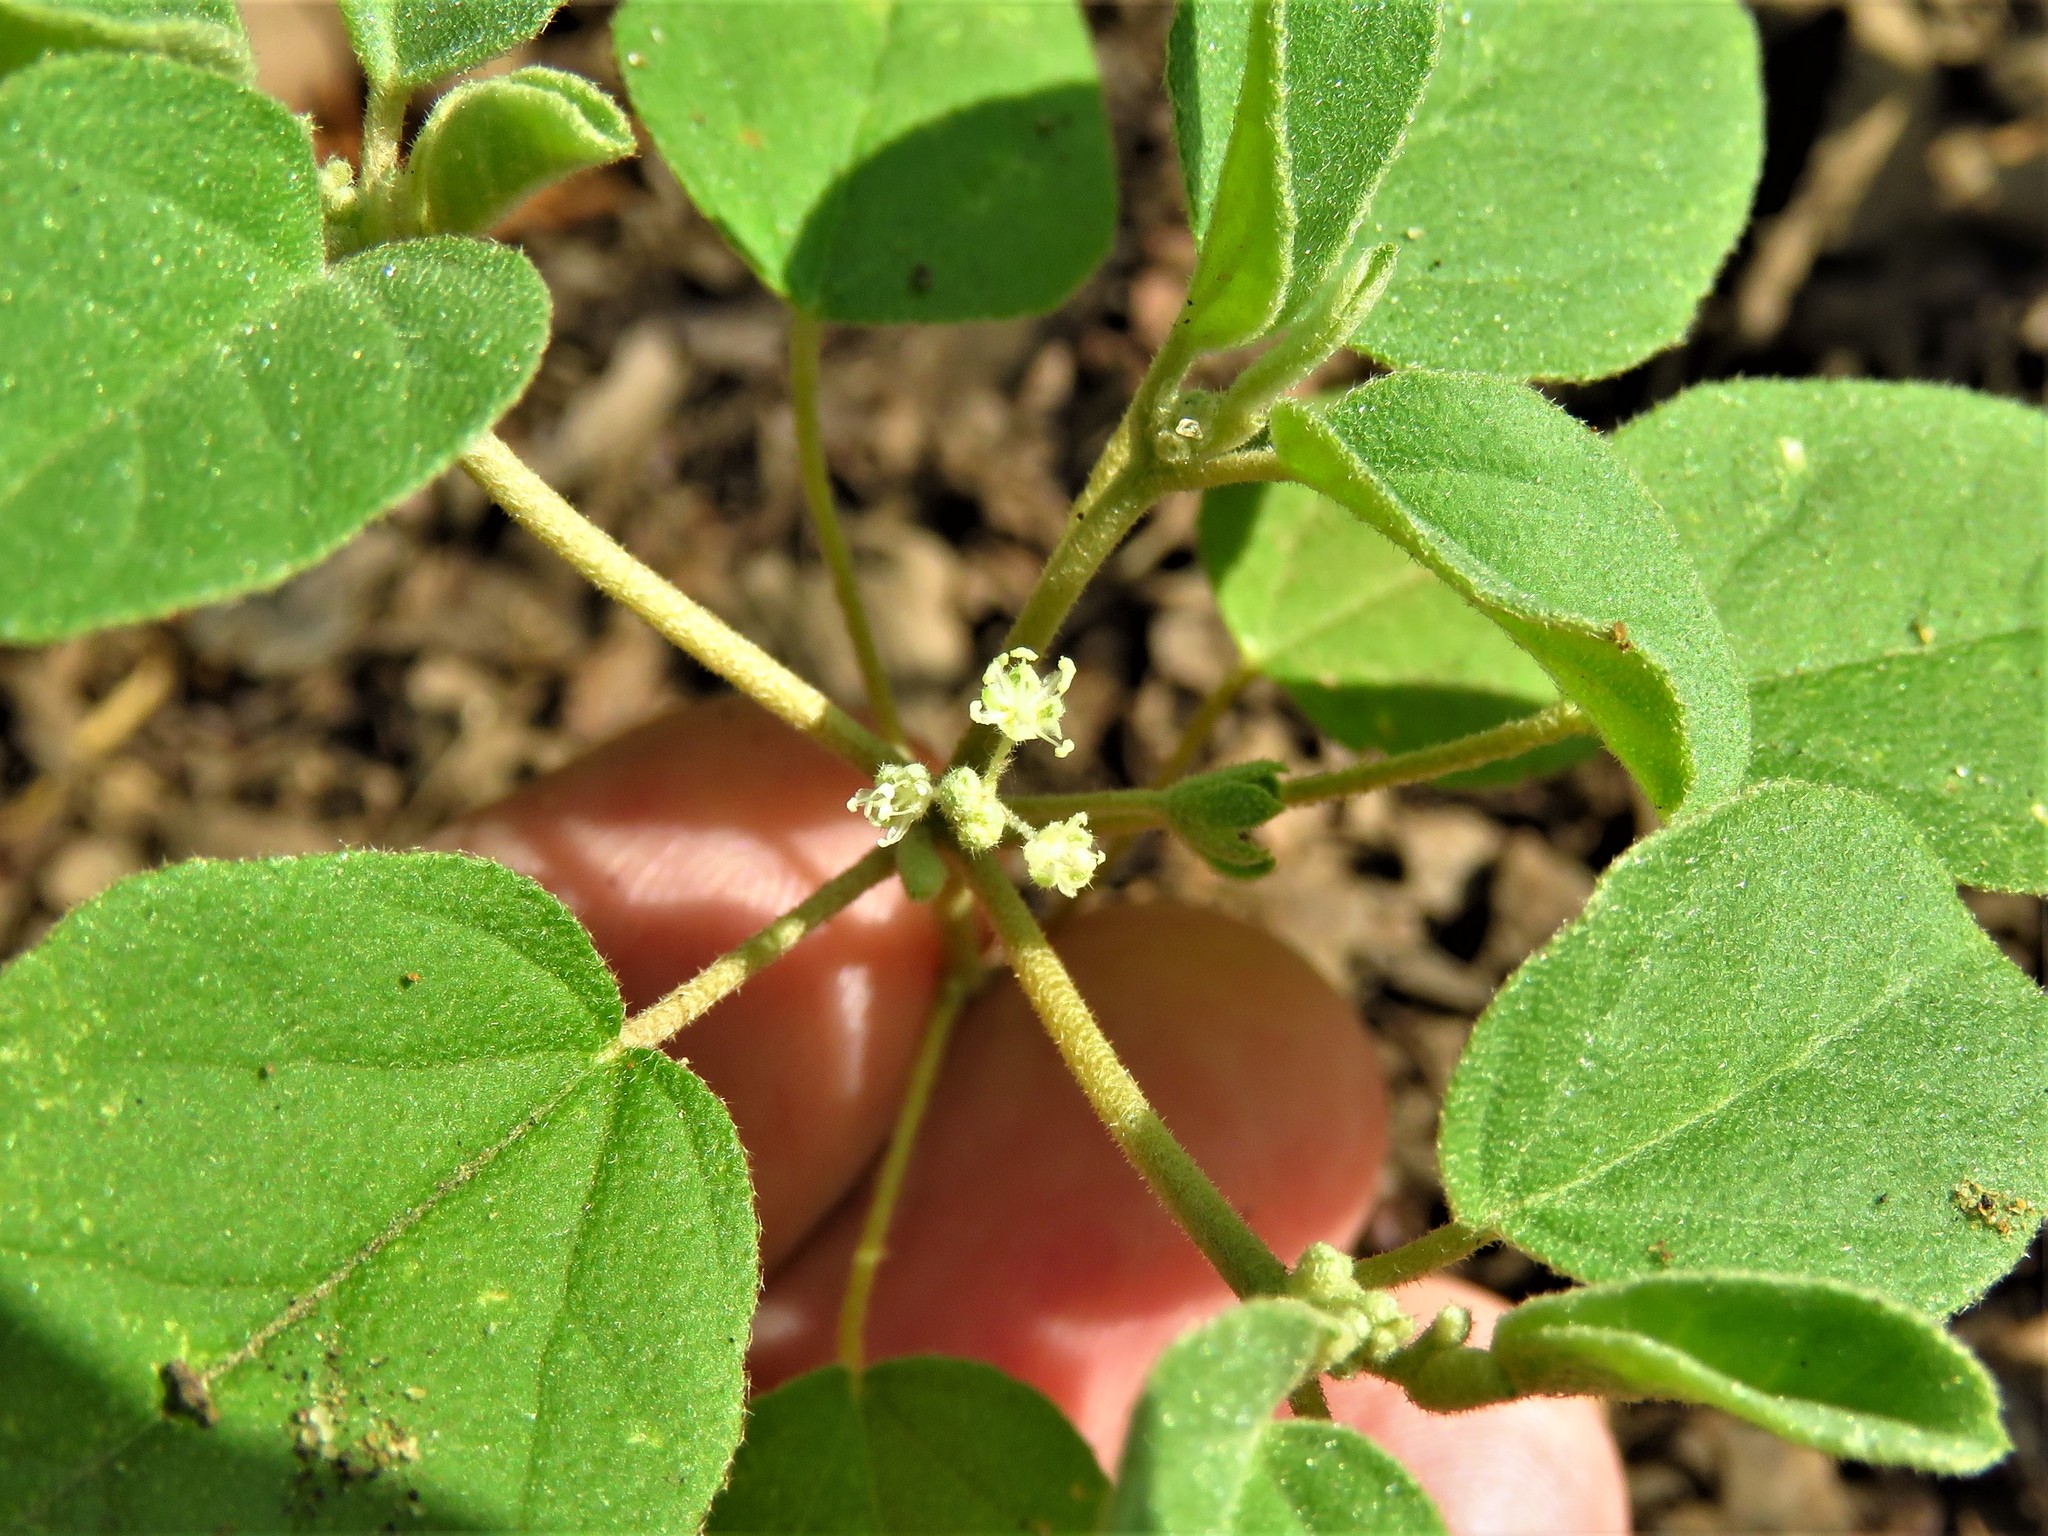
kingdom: Plantae
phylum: Tracheophyta
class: Magnoliopsida
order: Malpighiales
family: Euphorbiaceae
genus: Croton
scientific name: Croton monanthogynus
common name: One-seed croton
